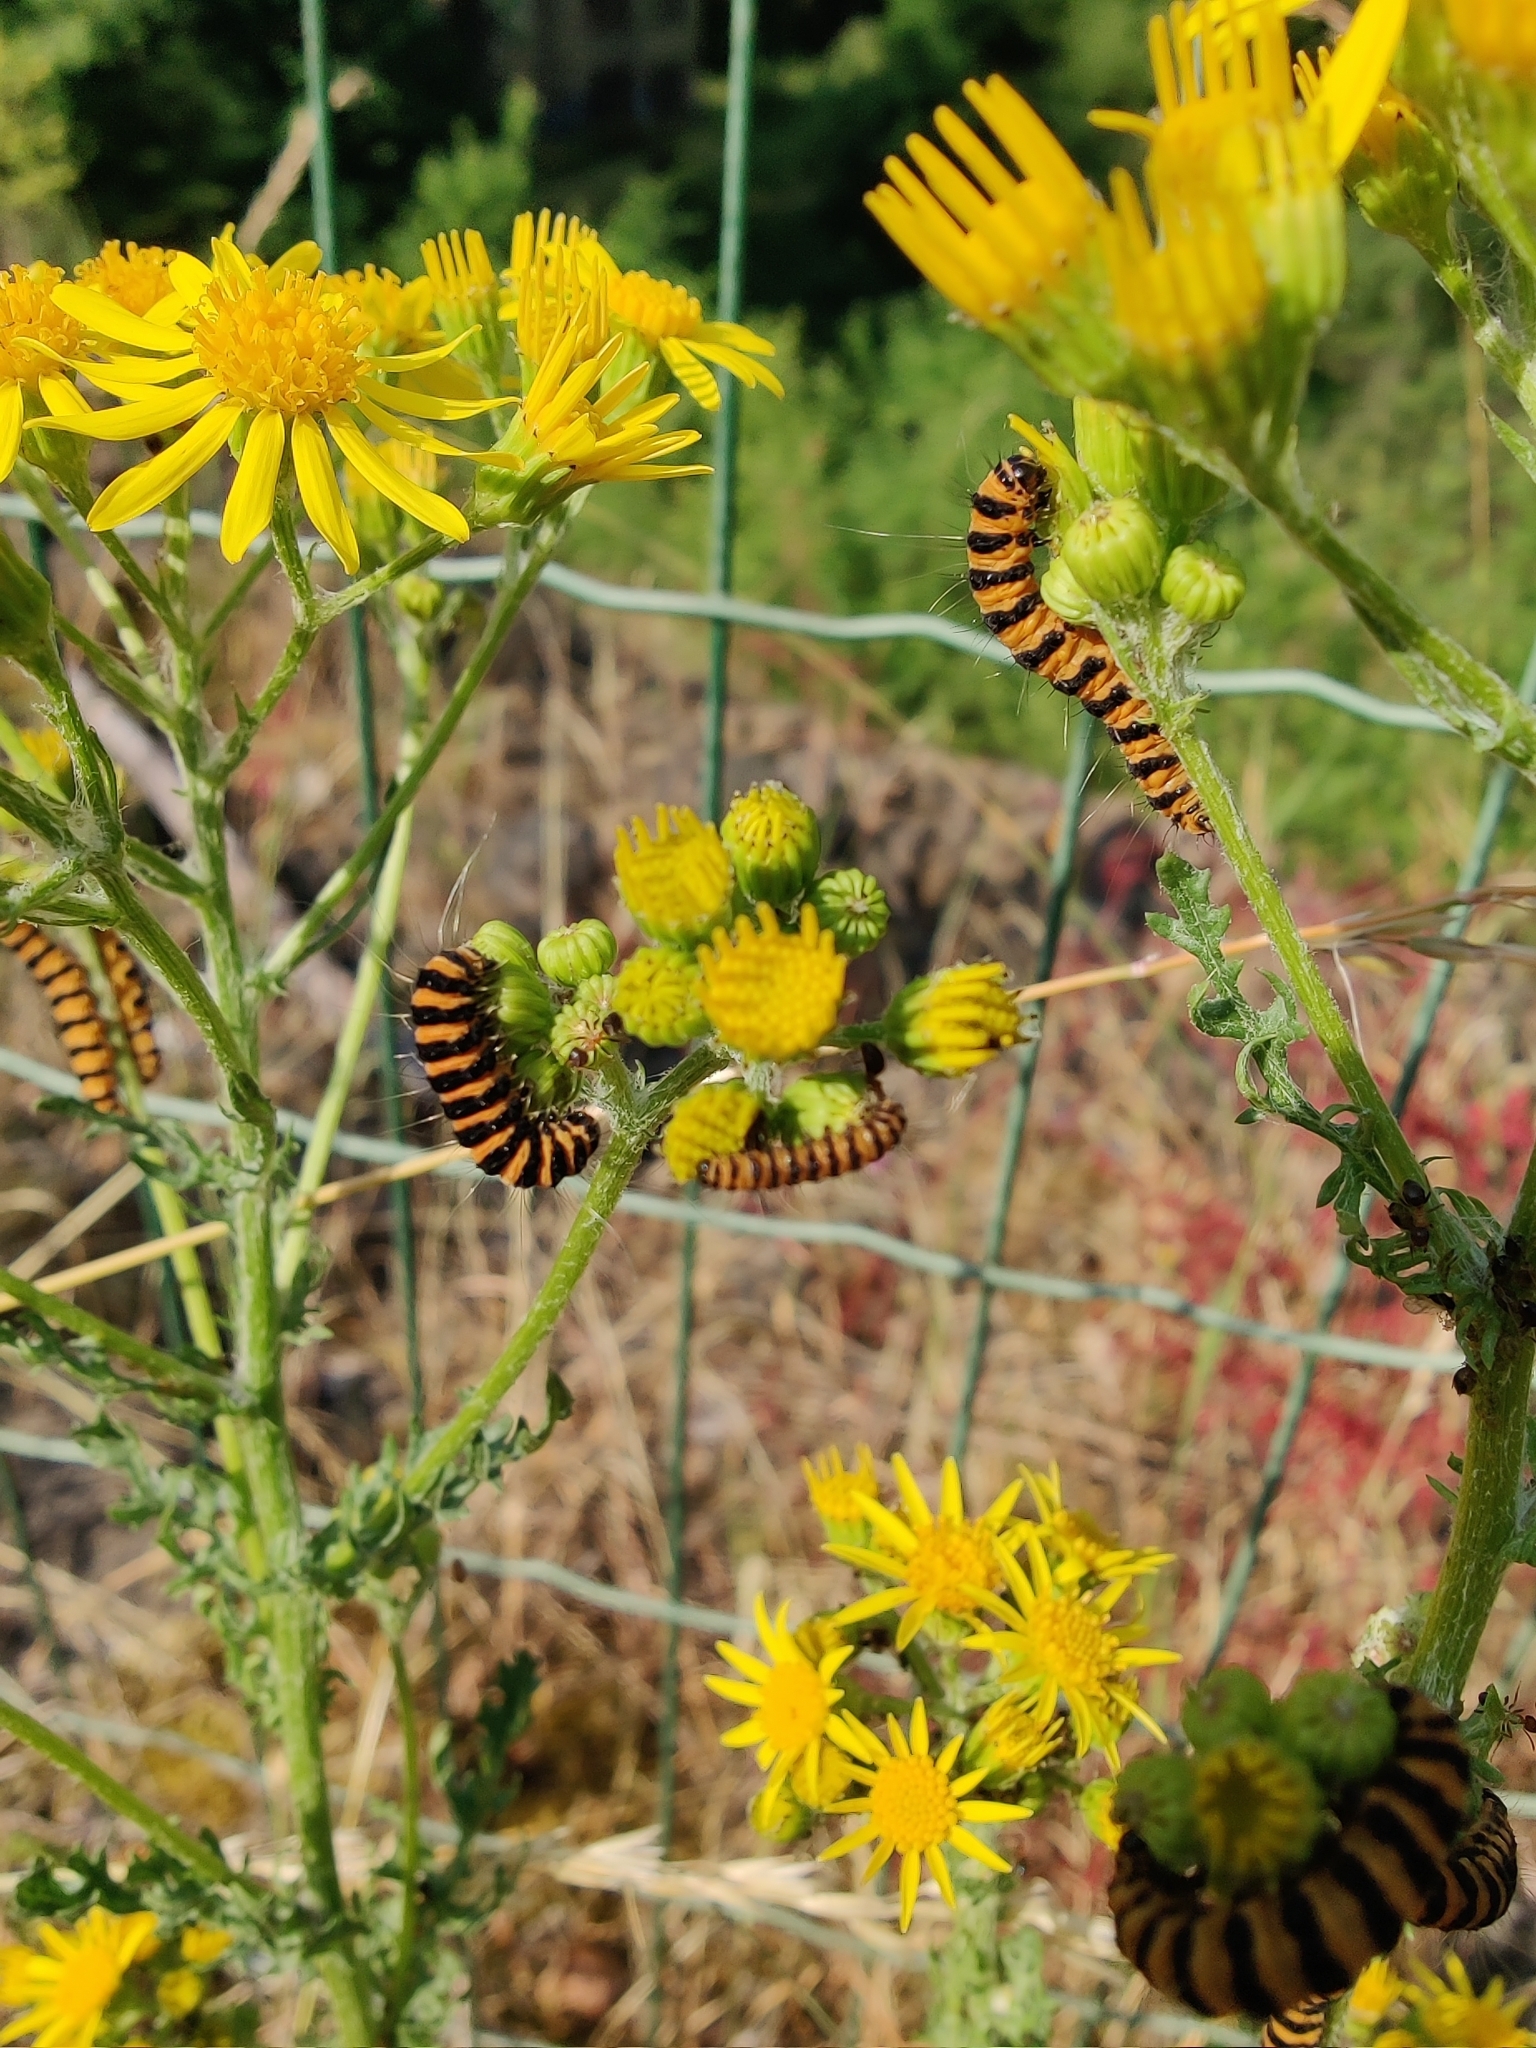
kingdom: Animalia
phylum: Arthropoda
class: Insecta
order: Lepidoptera
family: Erebidae
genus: Tyria
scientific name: Tyria jacobaeae
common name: Cinnabar
